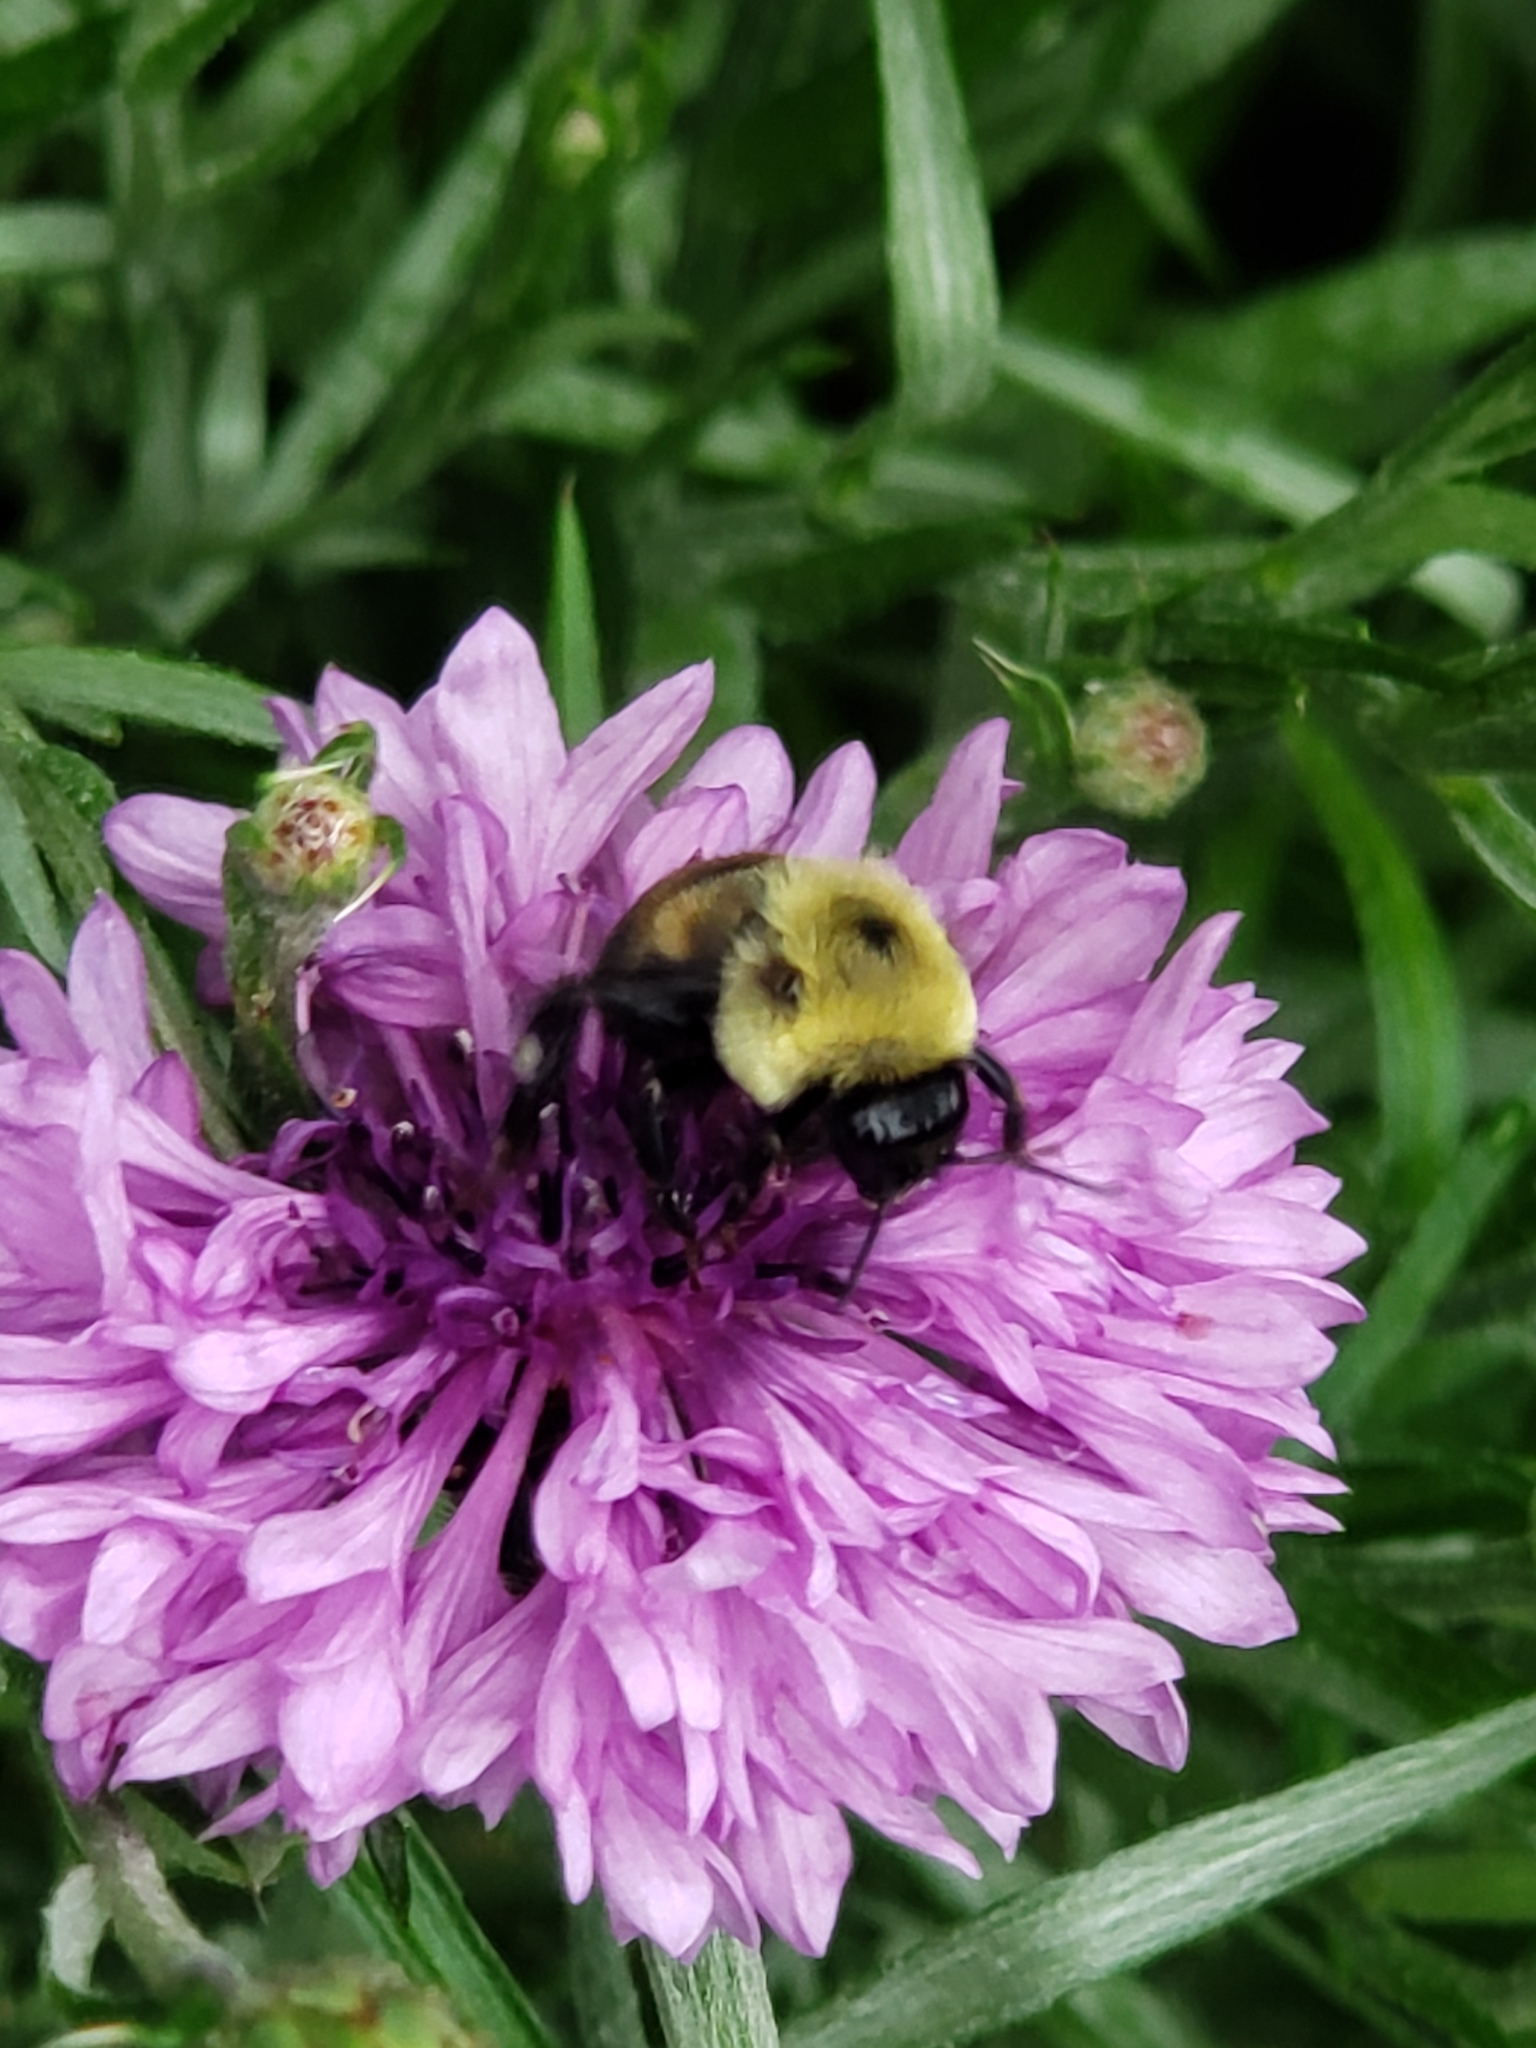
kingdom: Animalia
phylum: Arthropoda
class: Insecta
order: Hymenoptera
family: Apidae
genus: Bombus
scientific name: Bombus griseocollis
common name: Brown-belted bumble bee
